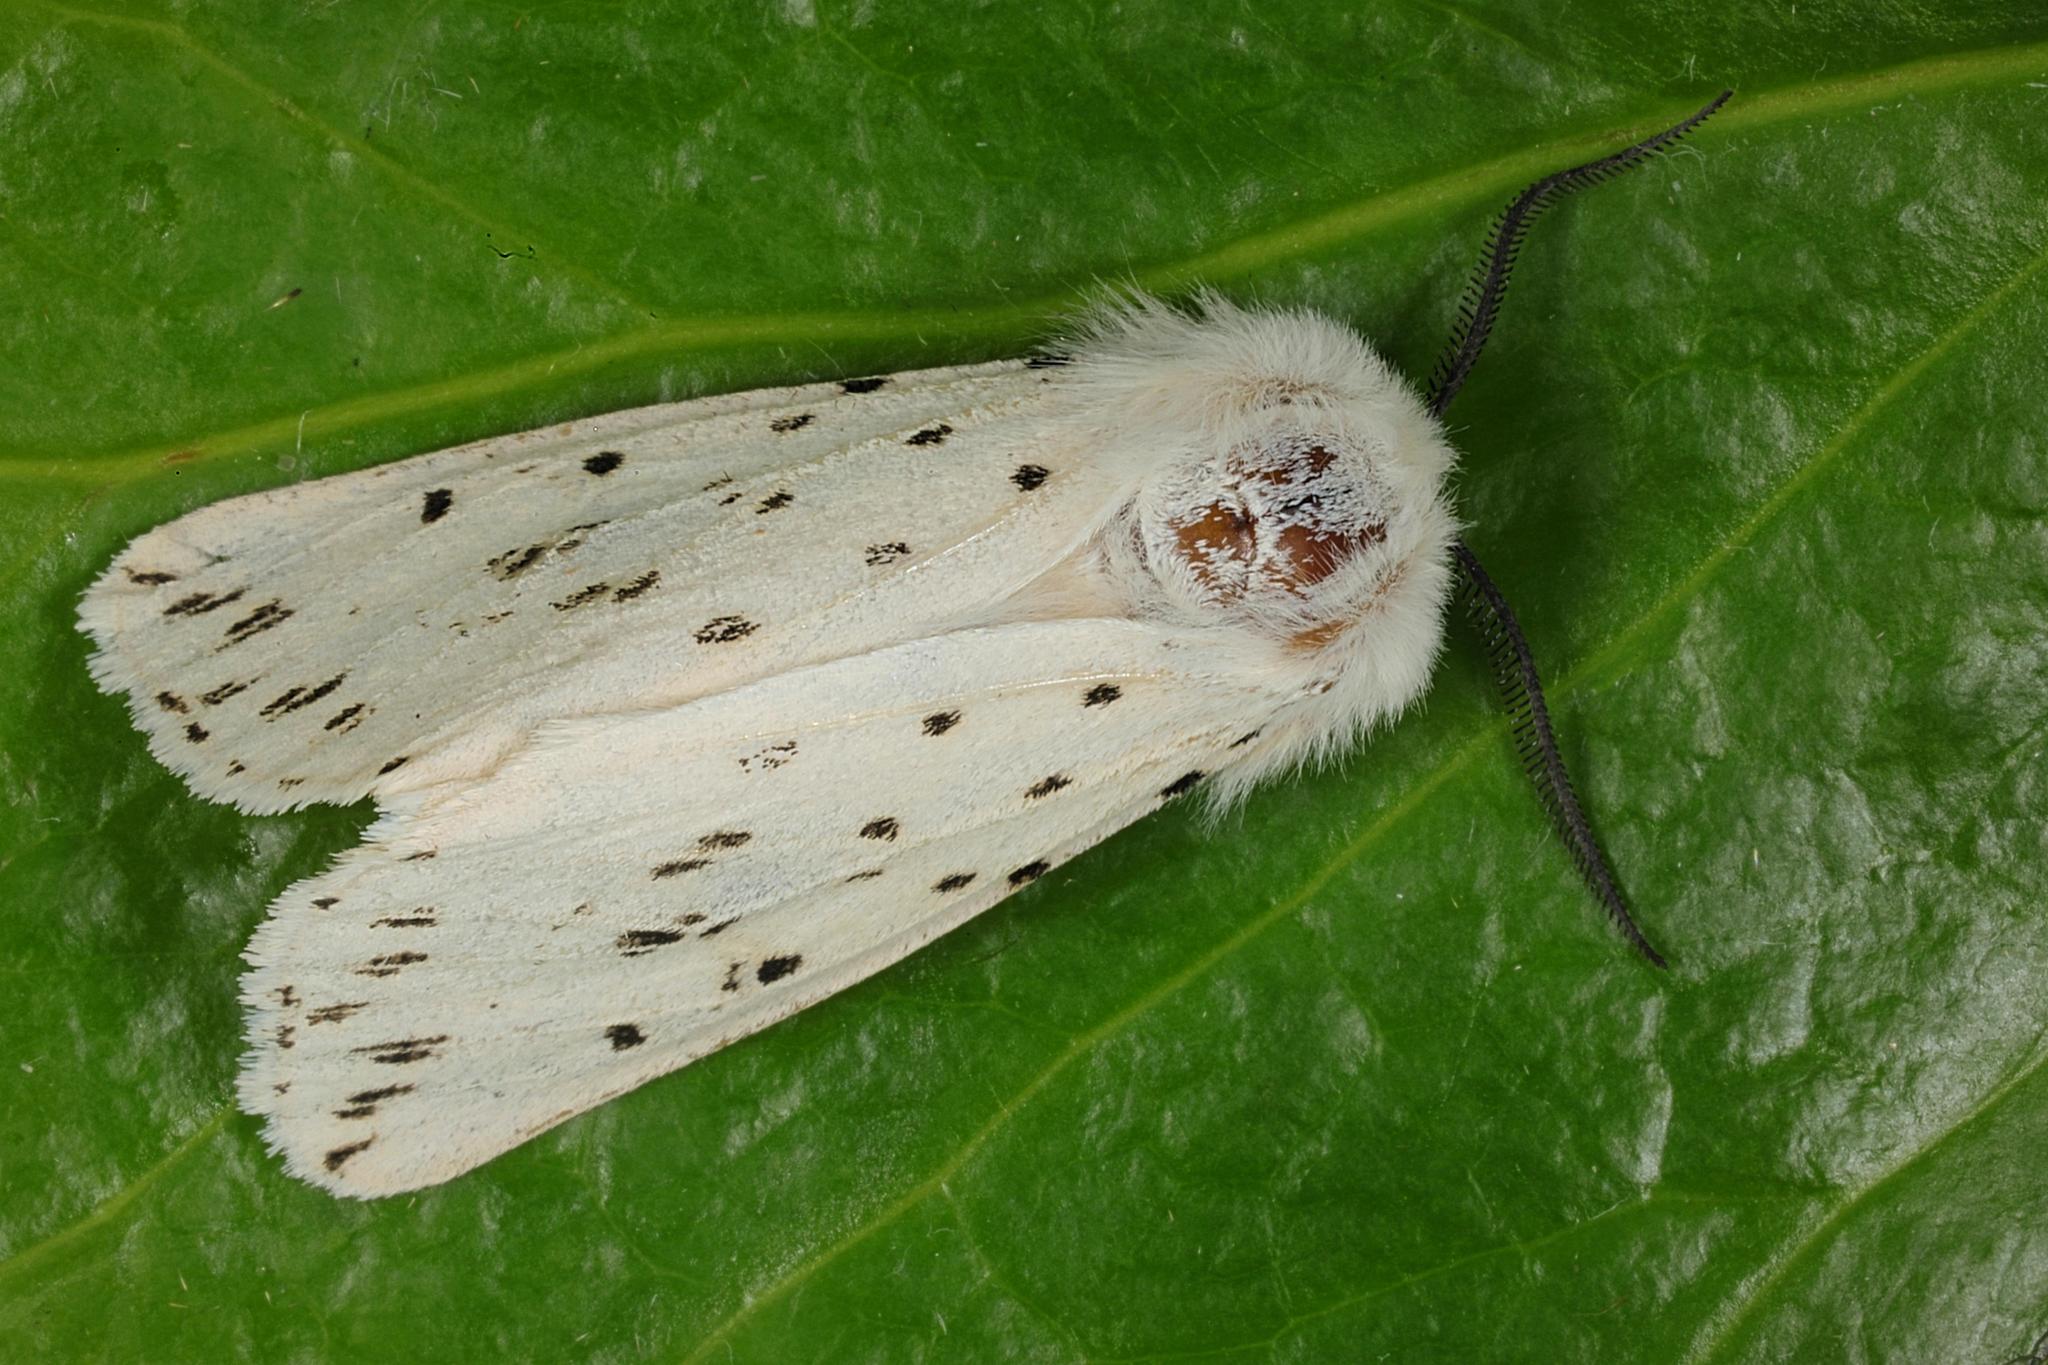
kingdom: Animalia
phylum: Arthropoda
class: Insecta
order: Lepidoptera
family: Erebidae
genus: Spilosoma
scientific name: Spilosoma lubricipeda
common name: White ermine
